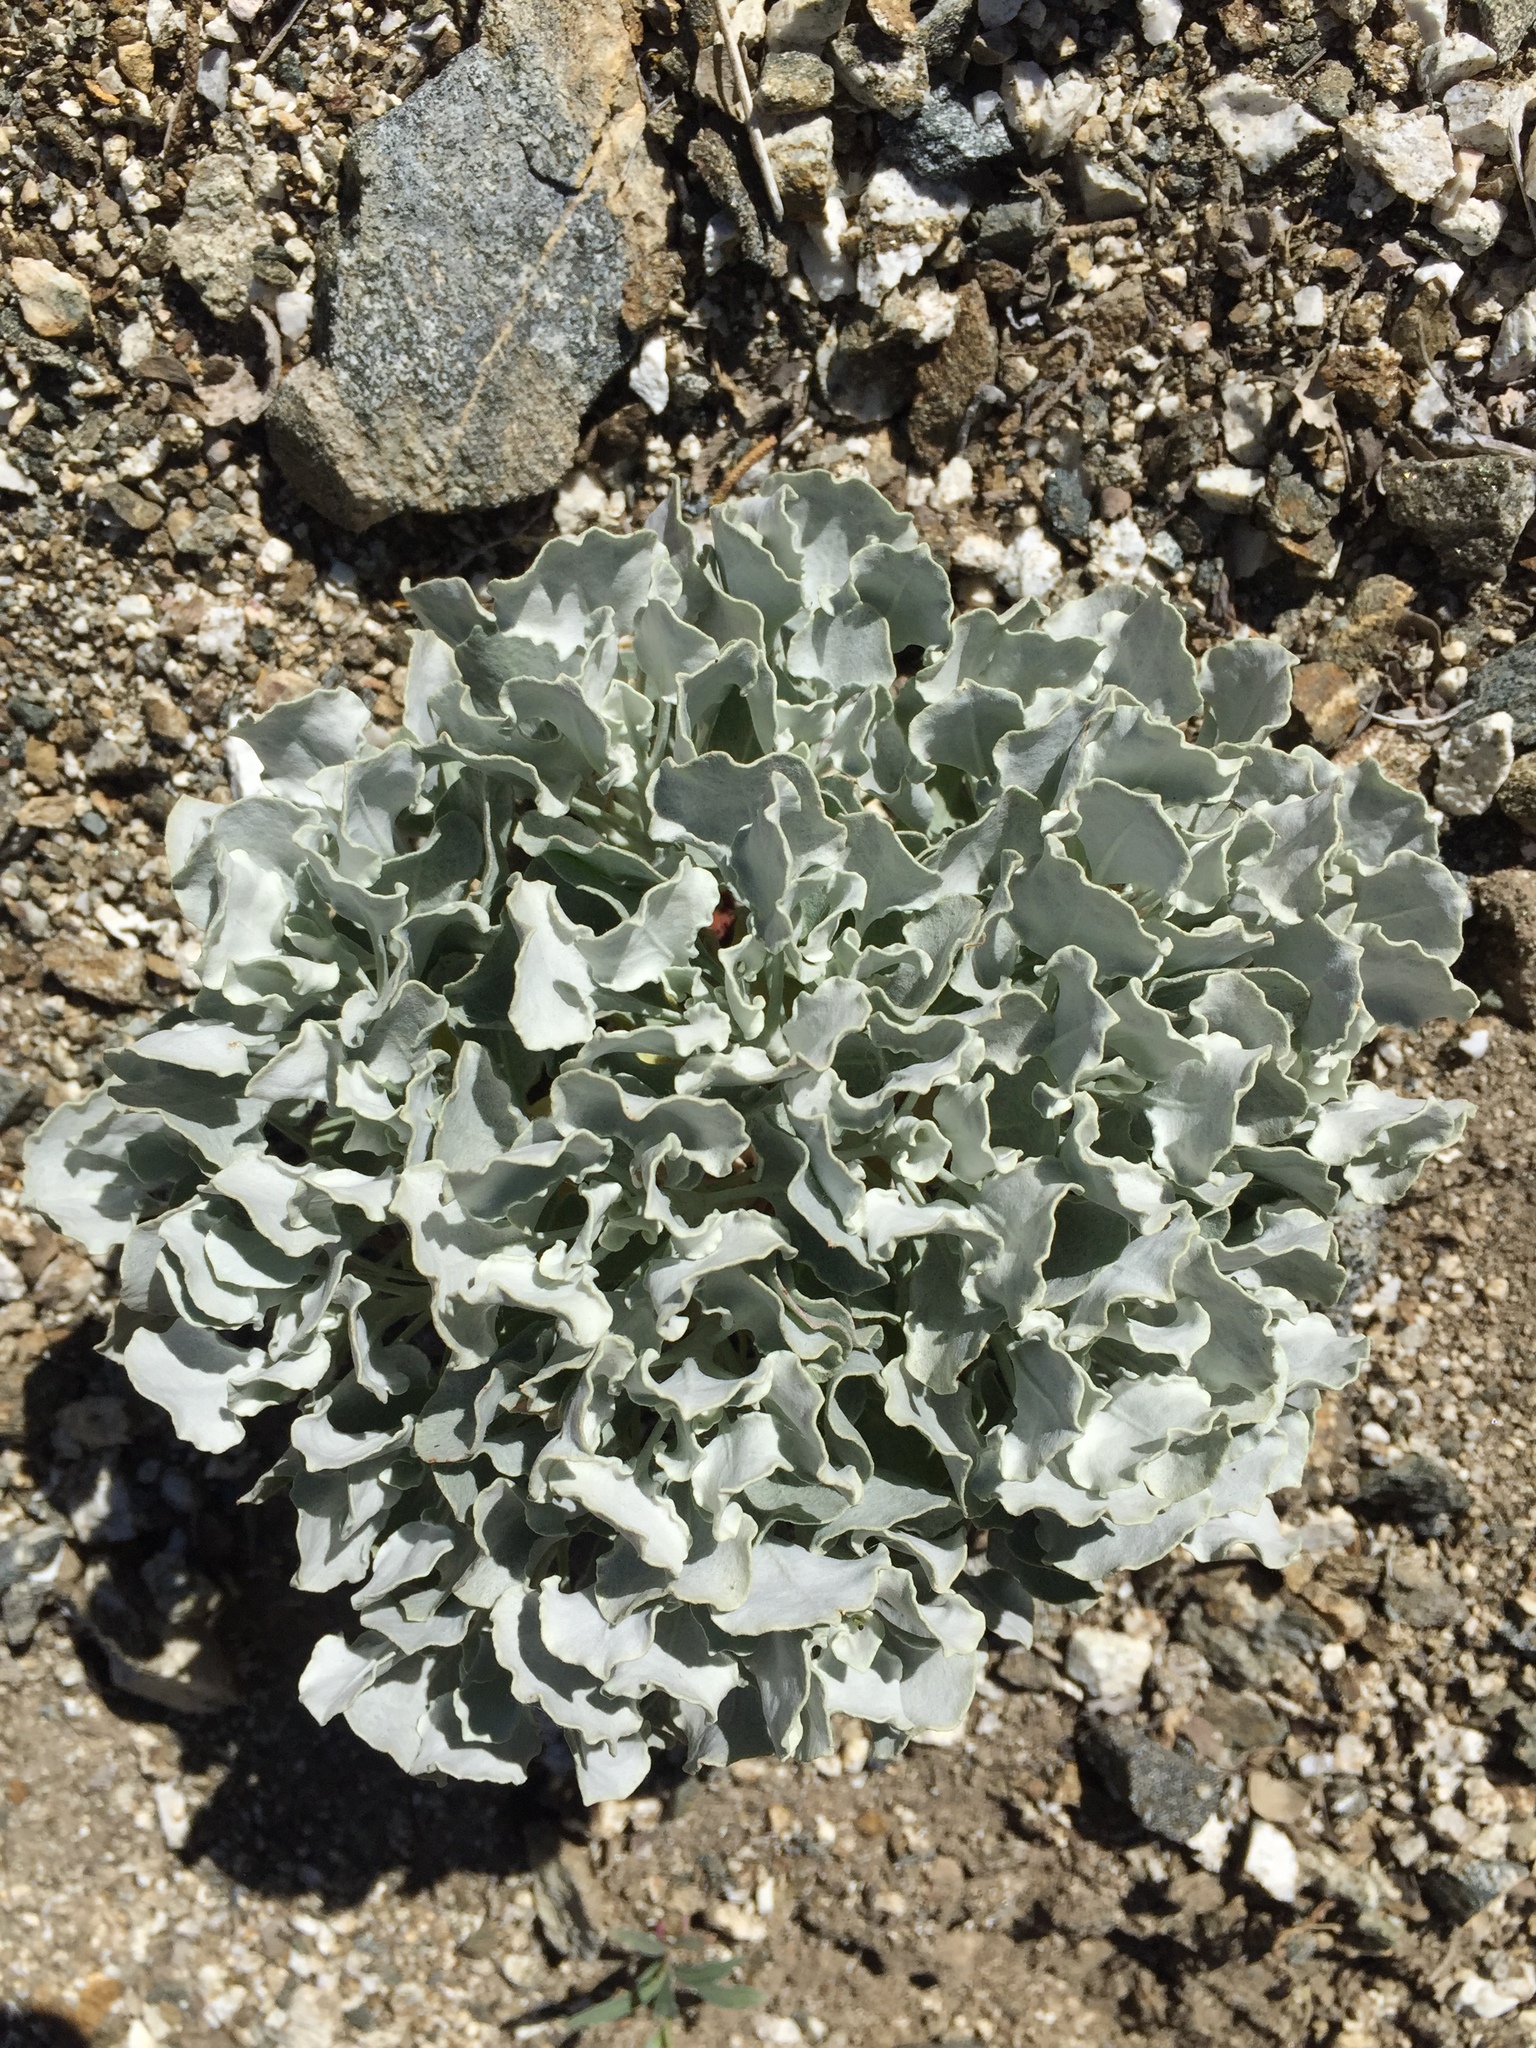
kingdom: Plantae
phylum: Tracheophyta
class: Magnoliopsida
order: Caryophyllales
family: Polygonaceae
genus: Eriogonum
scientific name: Eriogonum saxatile
